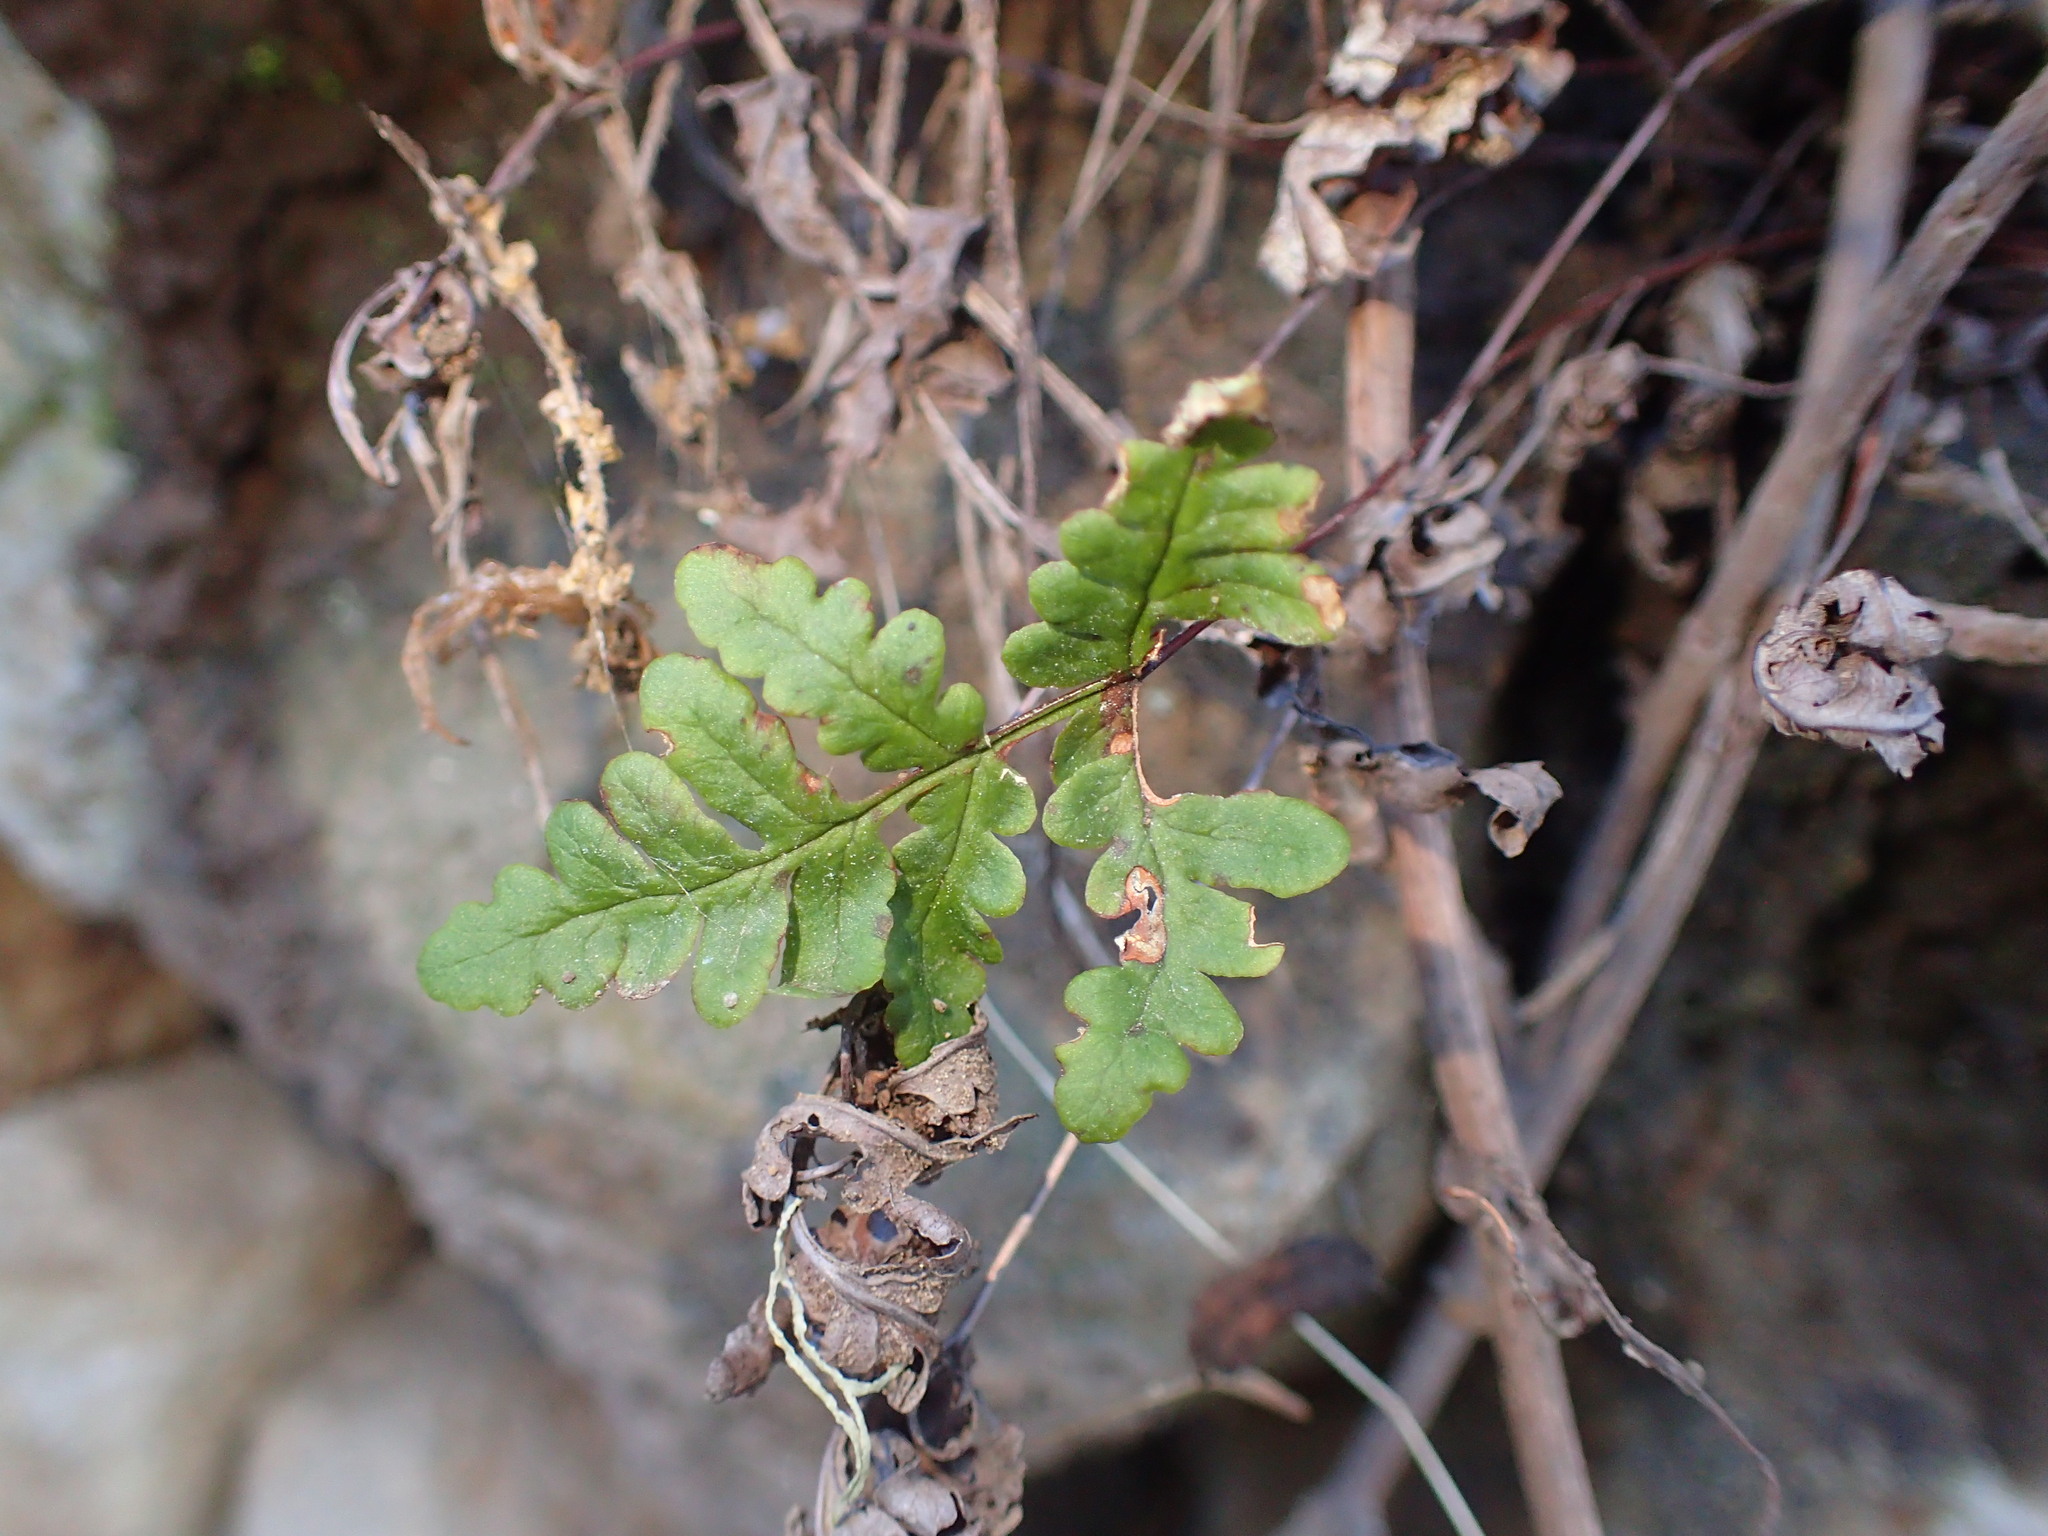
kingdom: Plantae
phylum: Tracheophyta
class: Polypodiopsida
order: Polypodiales
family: Pteridaceae
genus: Pentagramma
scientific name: Pentagramma triangularis
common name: Gold fern
